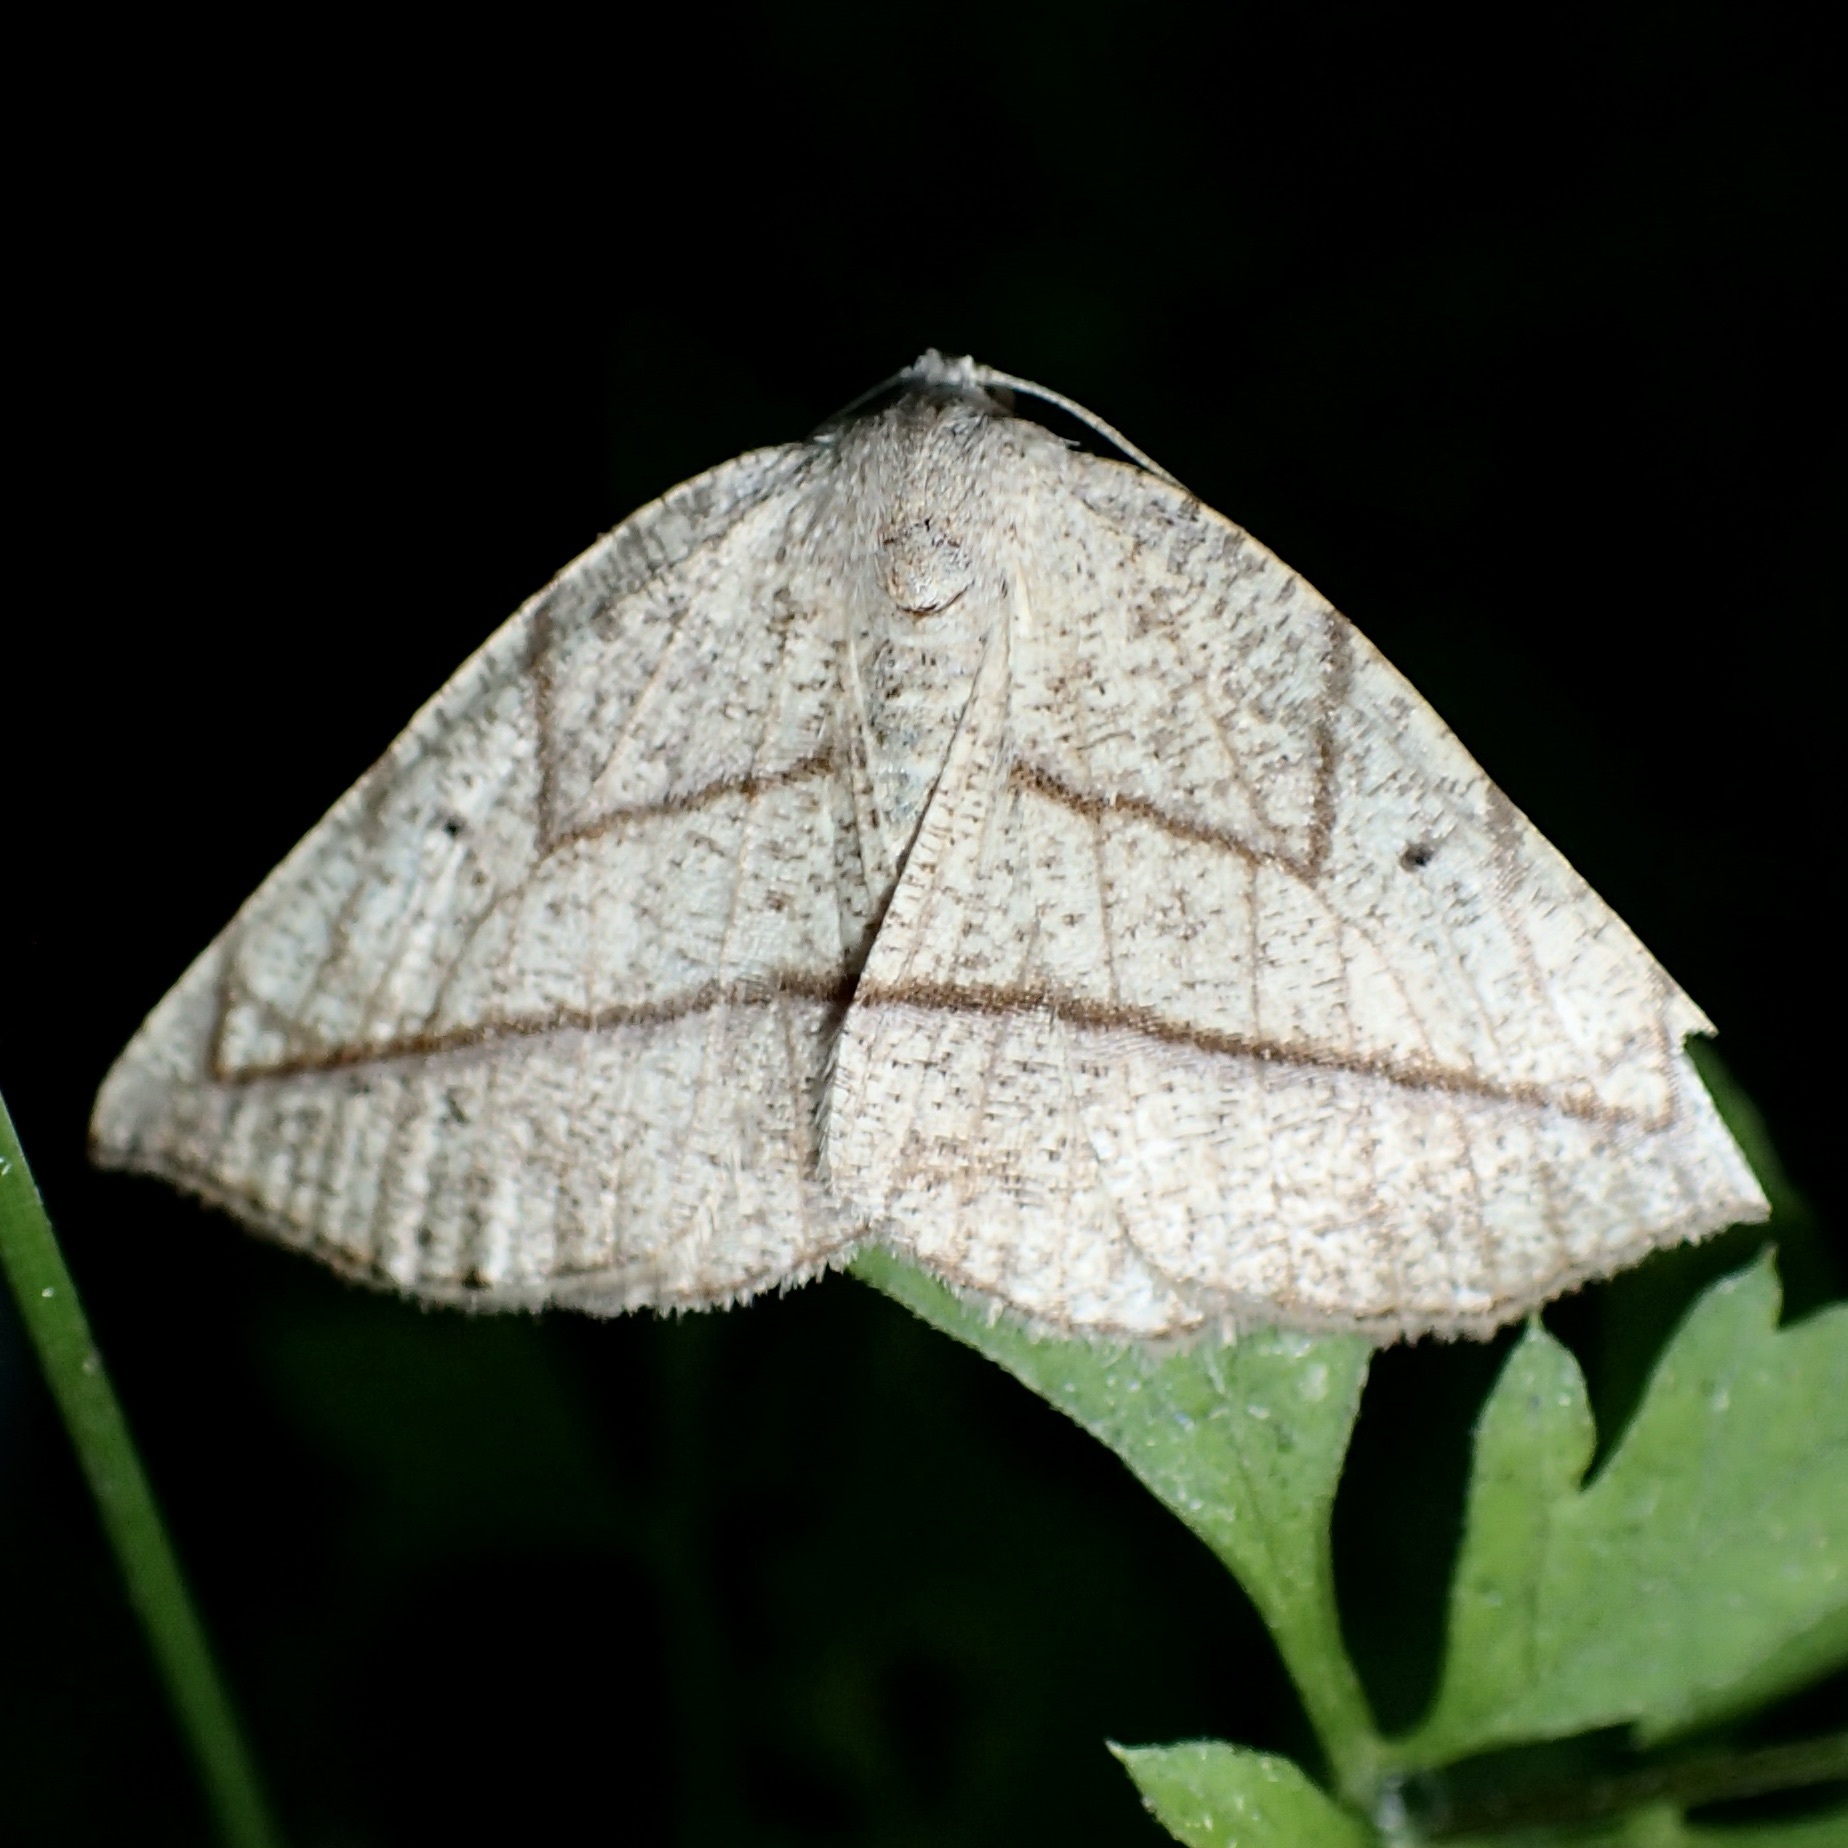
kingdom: Animalia
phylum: Arthropoda
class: Insecta
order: Lepidoptera
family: Geometridae
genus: Eusarca
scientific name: Eusarca geniculata
